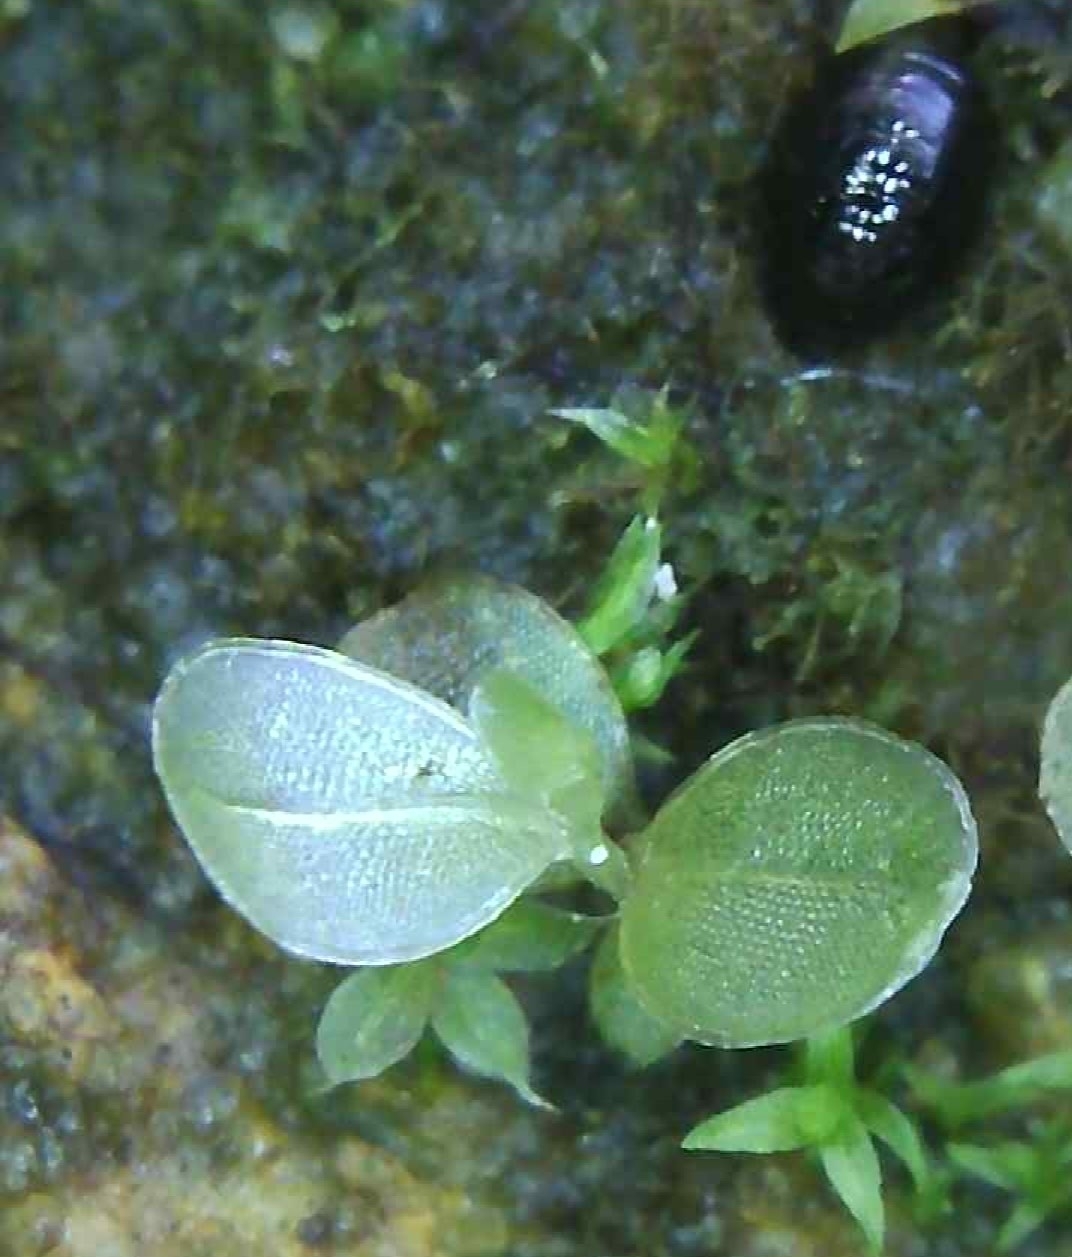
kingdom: Plantae
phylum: Bryophyta
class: Bryopsida
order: Bryales
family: Mniaceae
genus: Rhizomnium
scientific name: Rhizomnium punctatum
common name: Dotted leafy moss
